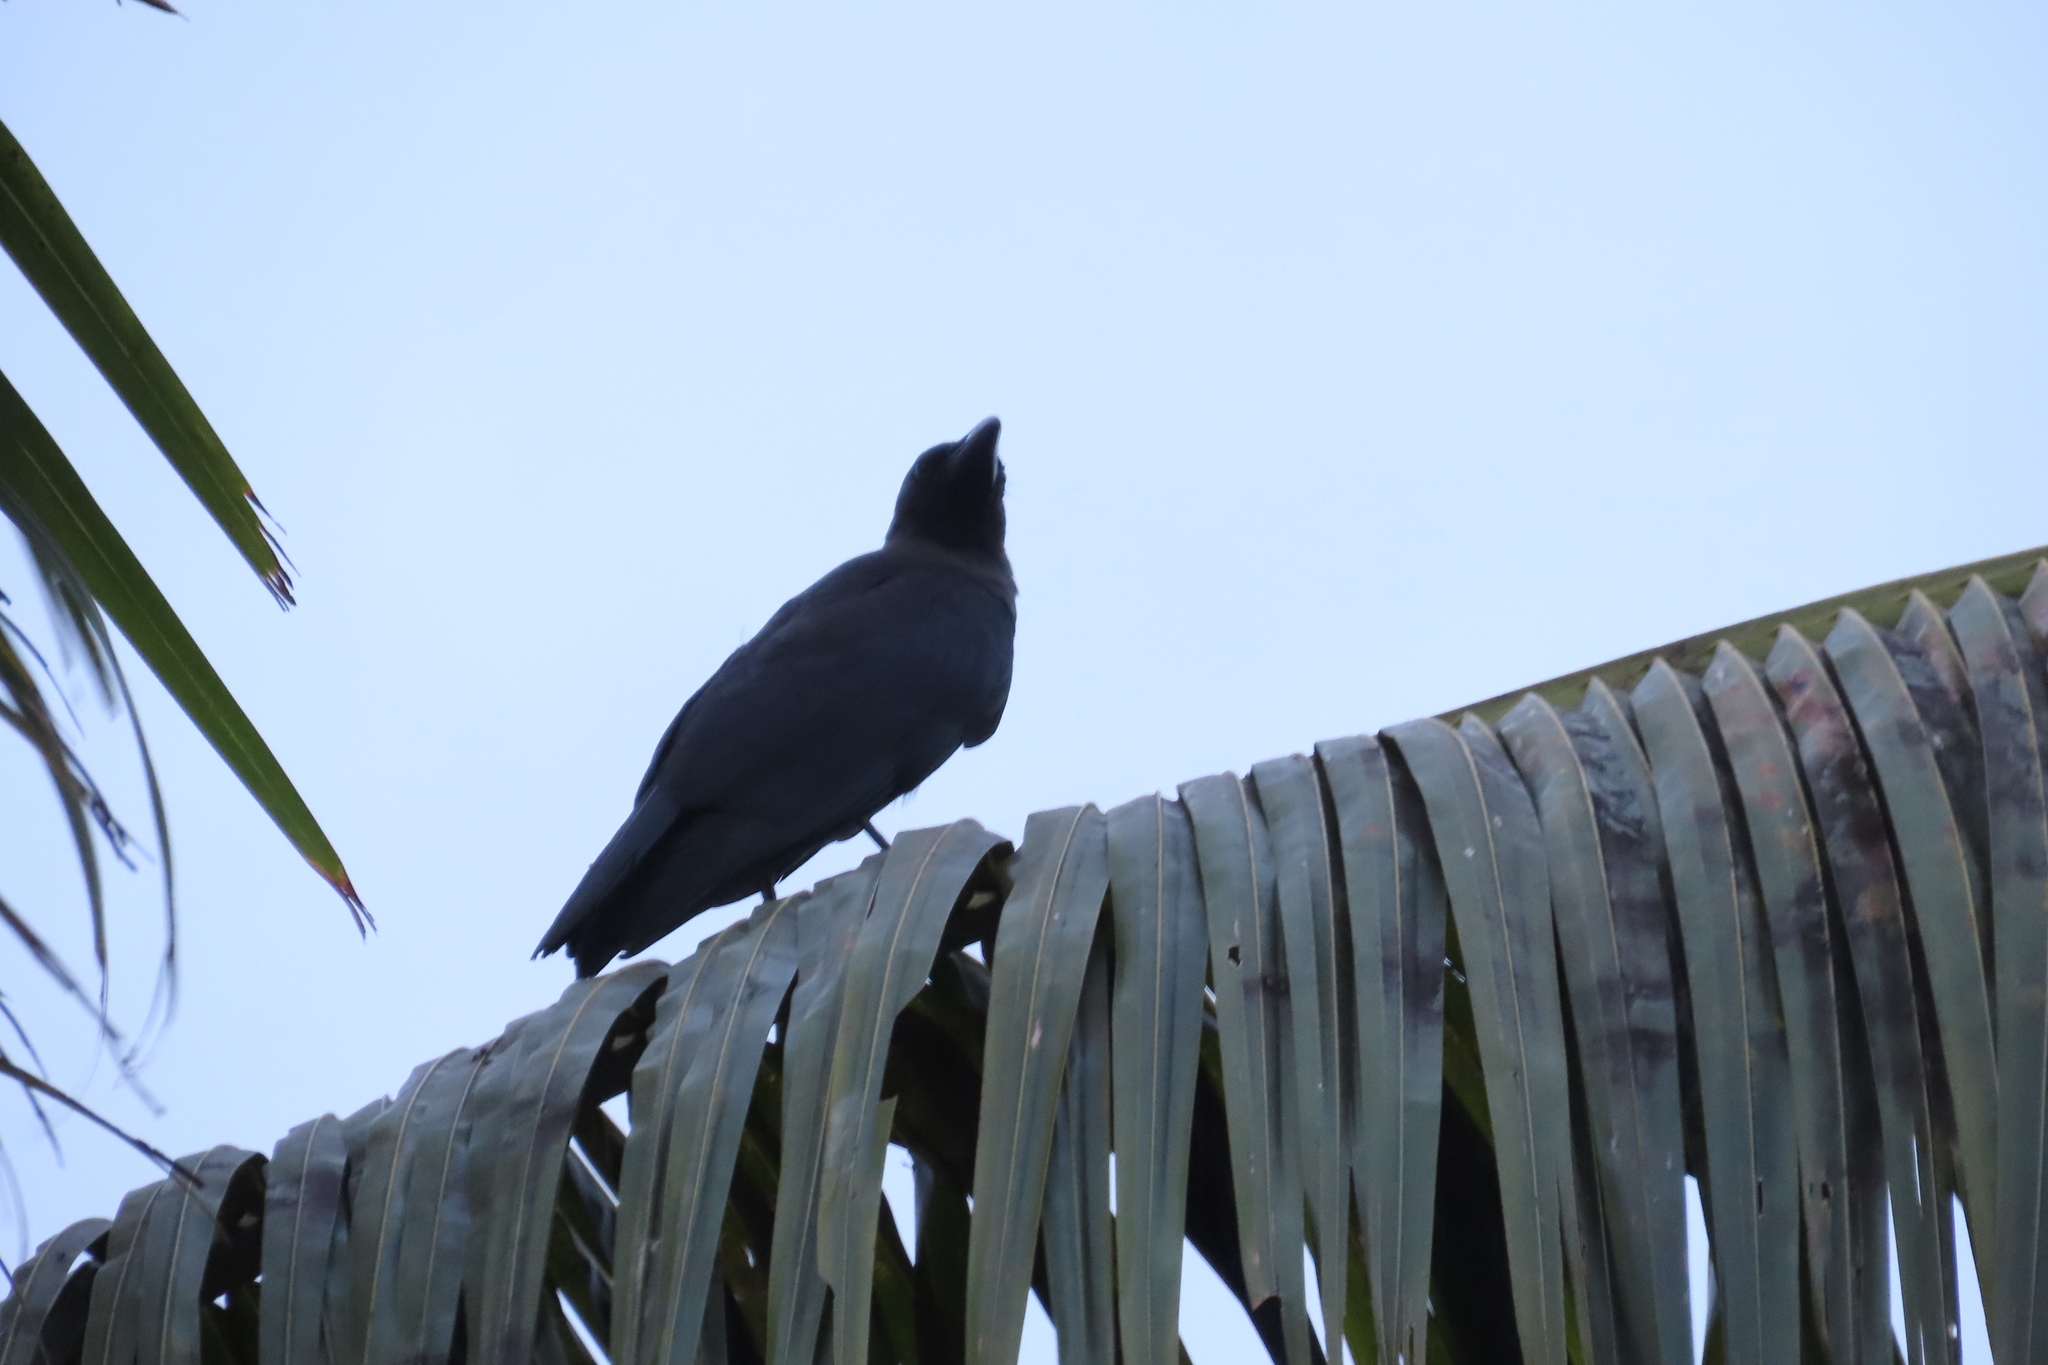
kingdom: Animalia
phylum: Chordata
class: Aves
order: Passeriformes
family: Corvidae
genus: Corvus
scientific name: Corvus splendens
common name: House crow
